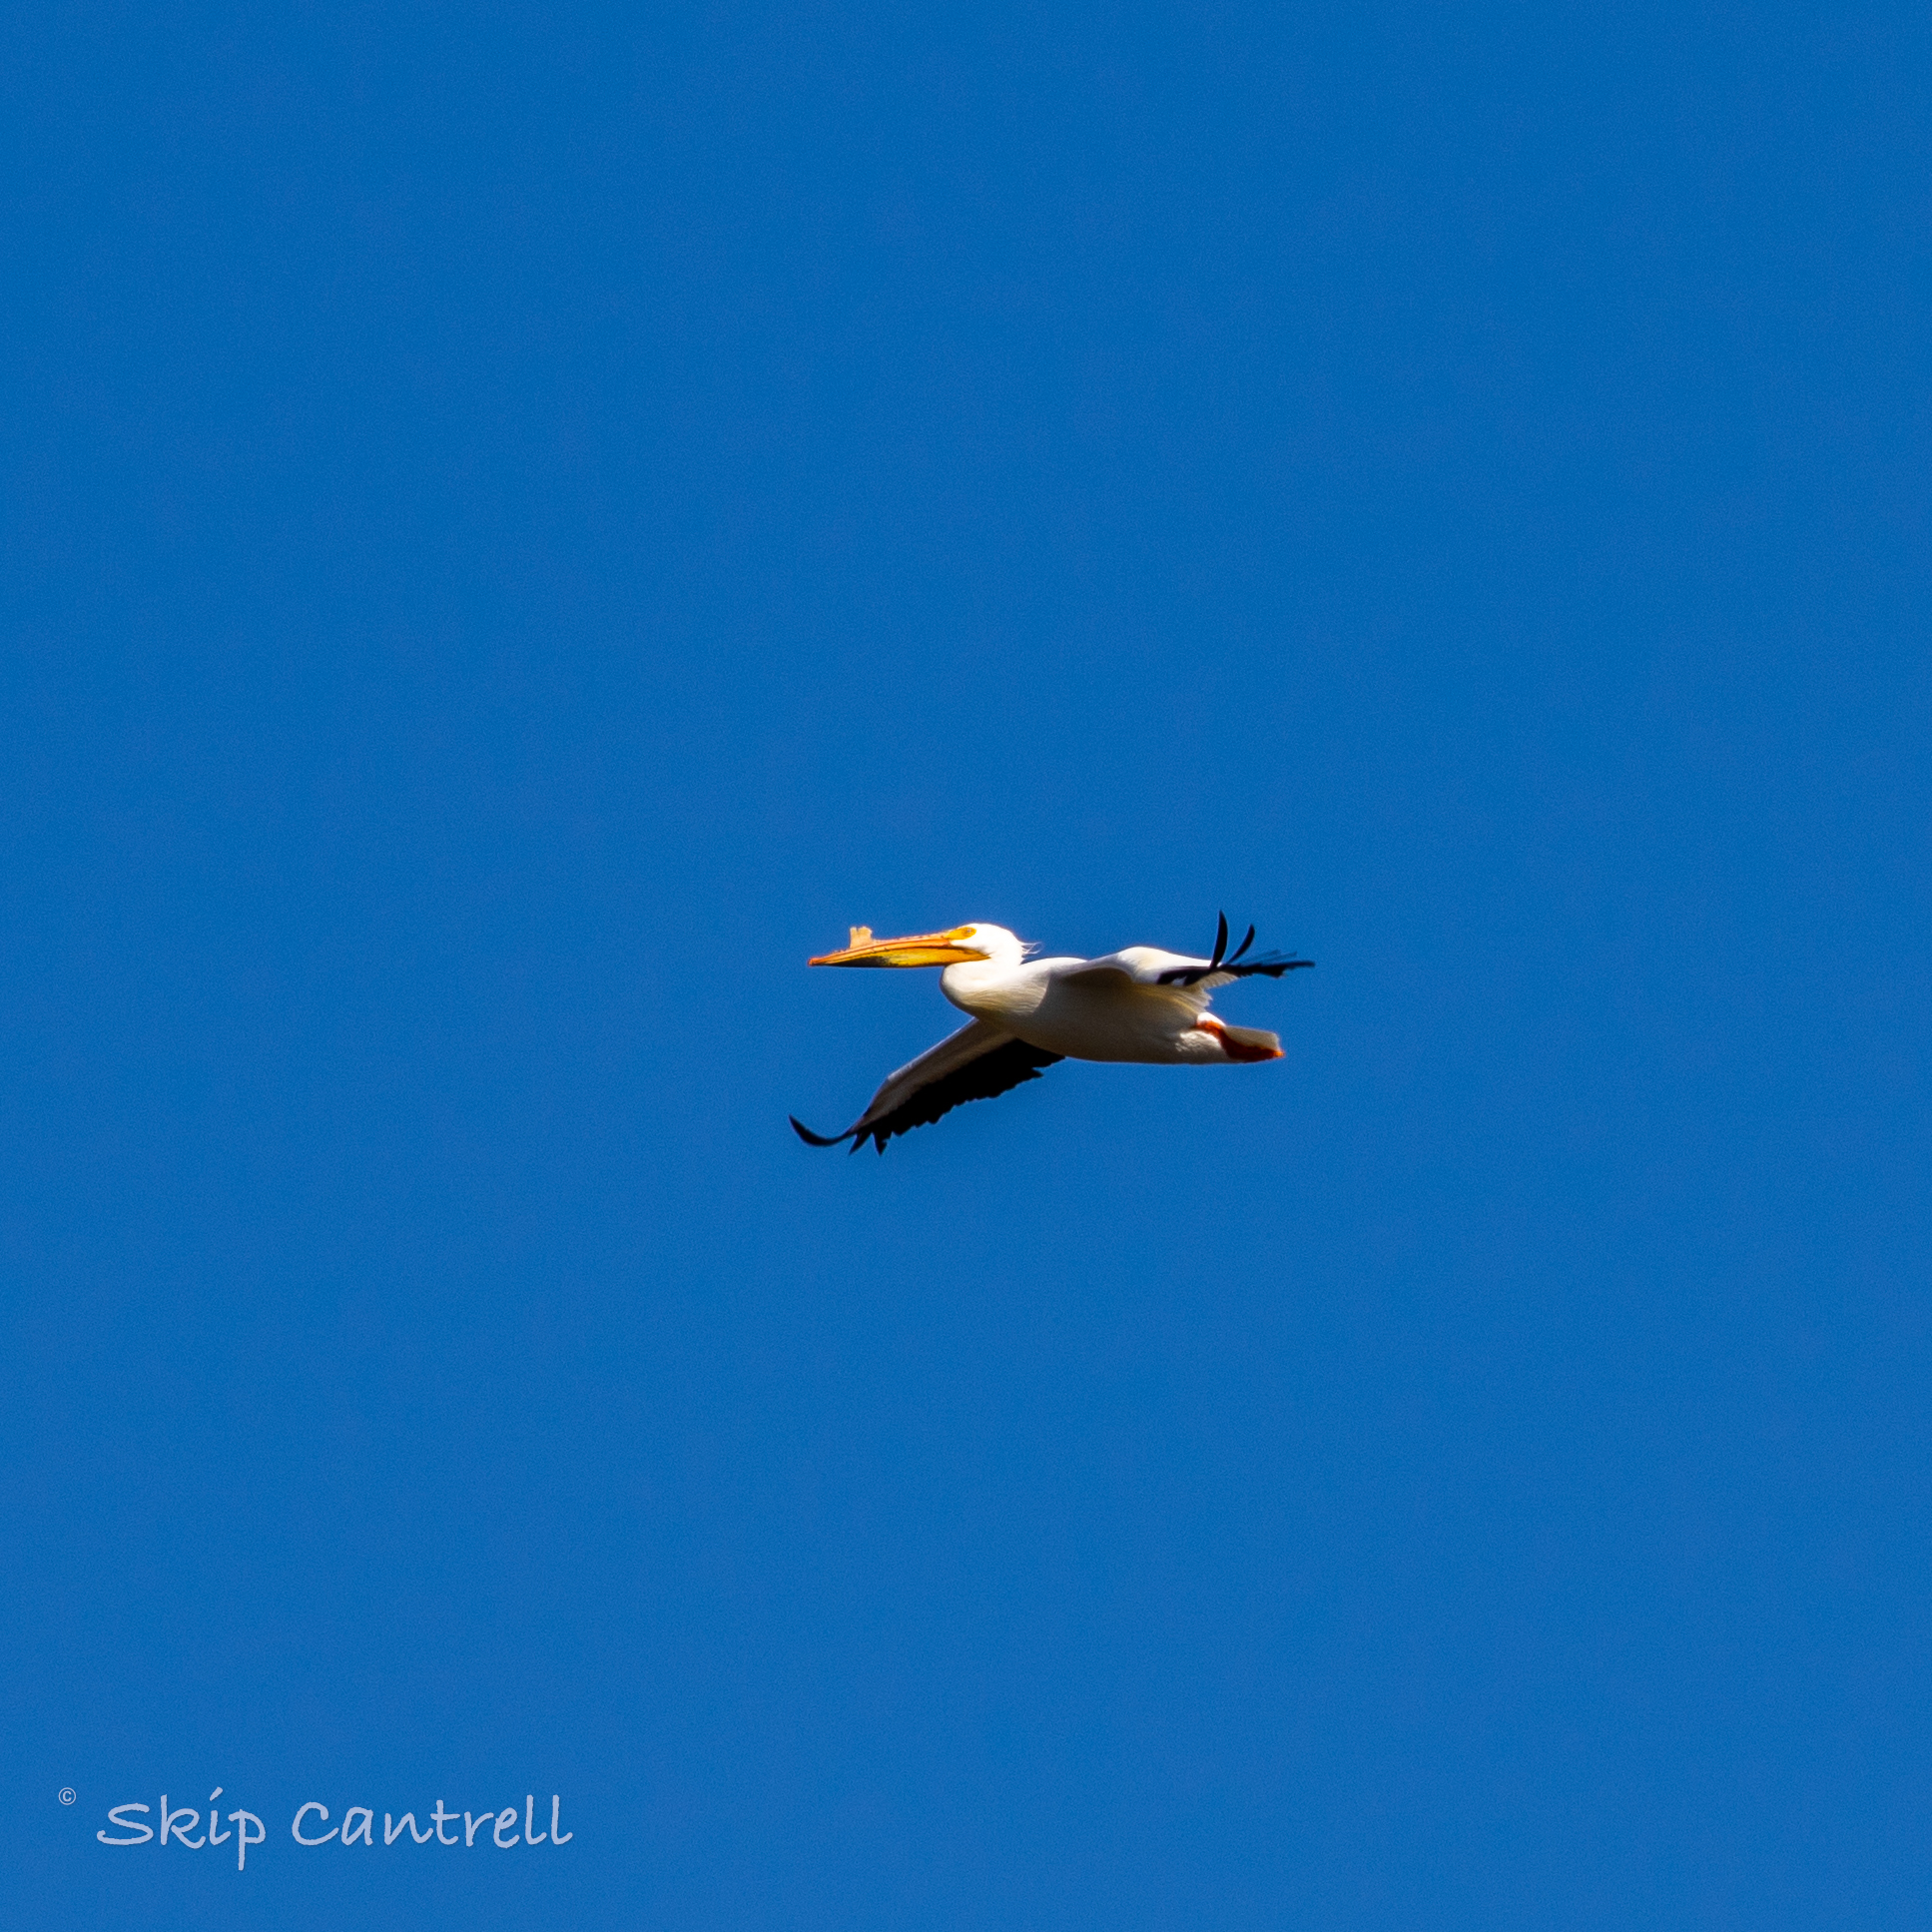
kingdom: Animalia
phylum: Chordata
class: Aves
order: Pelecaniformes
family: Pelecanidae
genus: Pelecanus
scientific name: Pelecanus erythrorhynchos
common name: American white pelican
